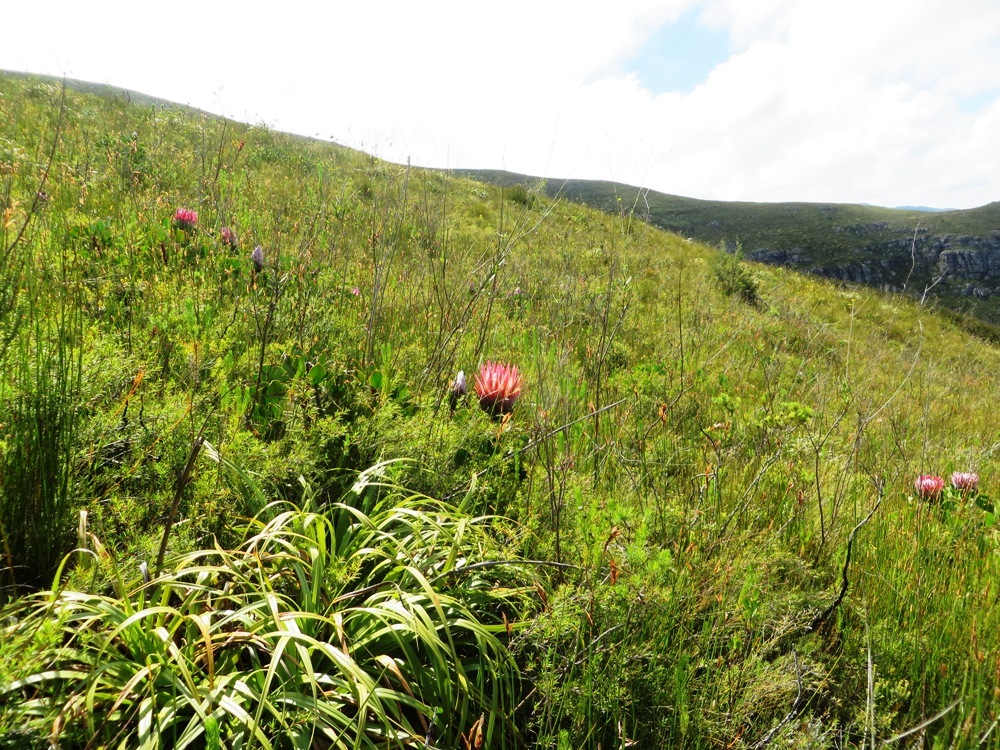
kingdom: Plantae
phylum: Tracheophyta
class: Magnoliopsida
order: Proteales
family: Proteaceae
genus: Protea
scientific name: Protea cynaroides
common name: King protea
